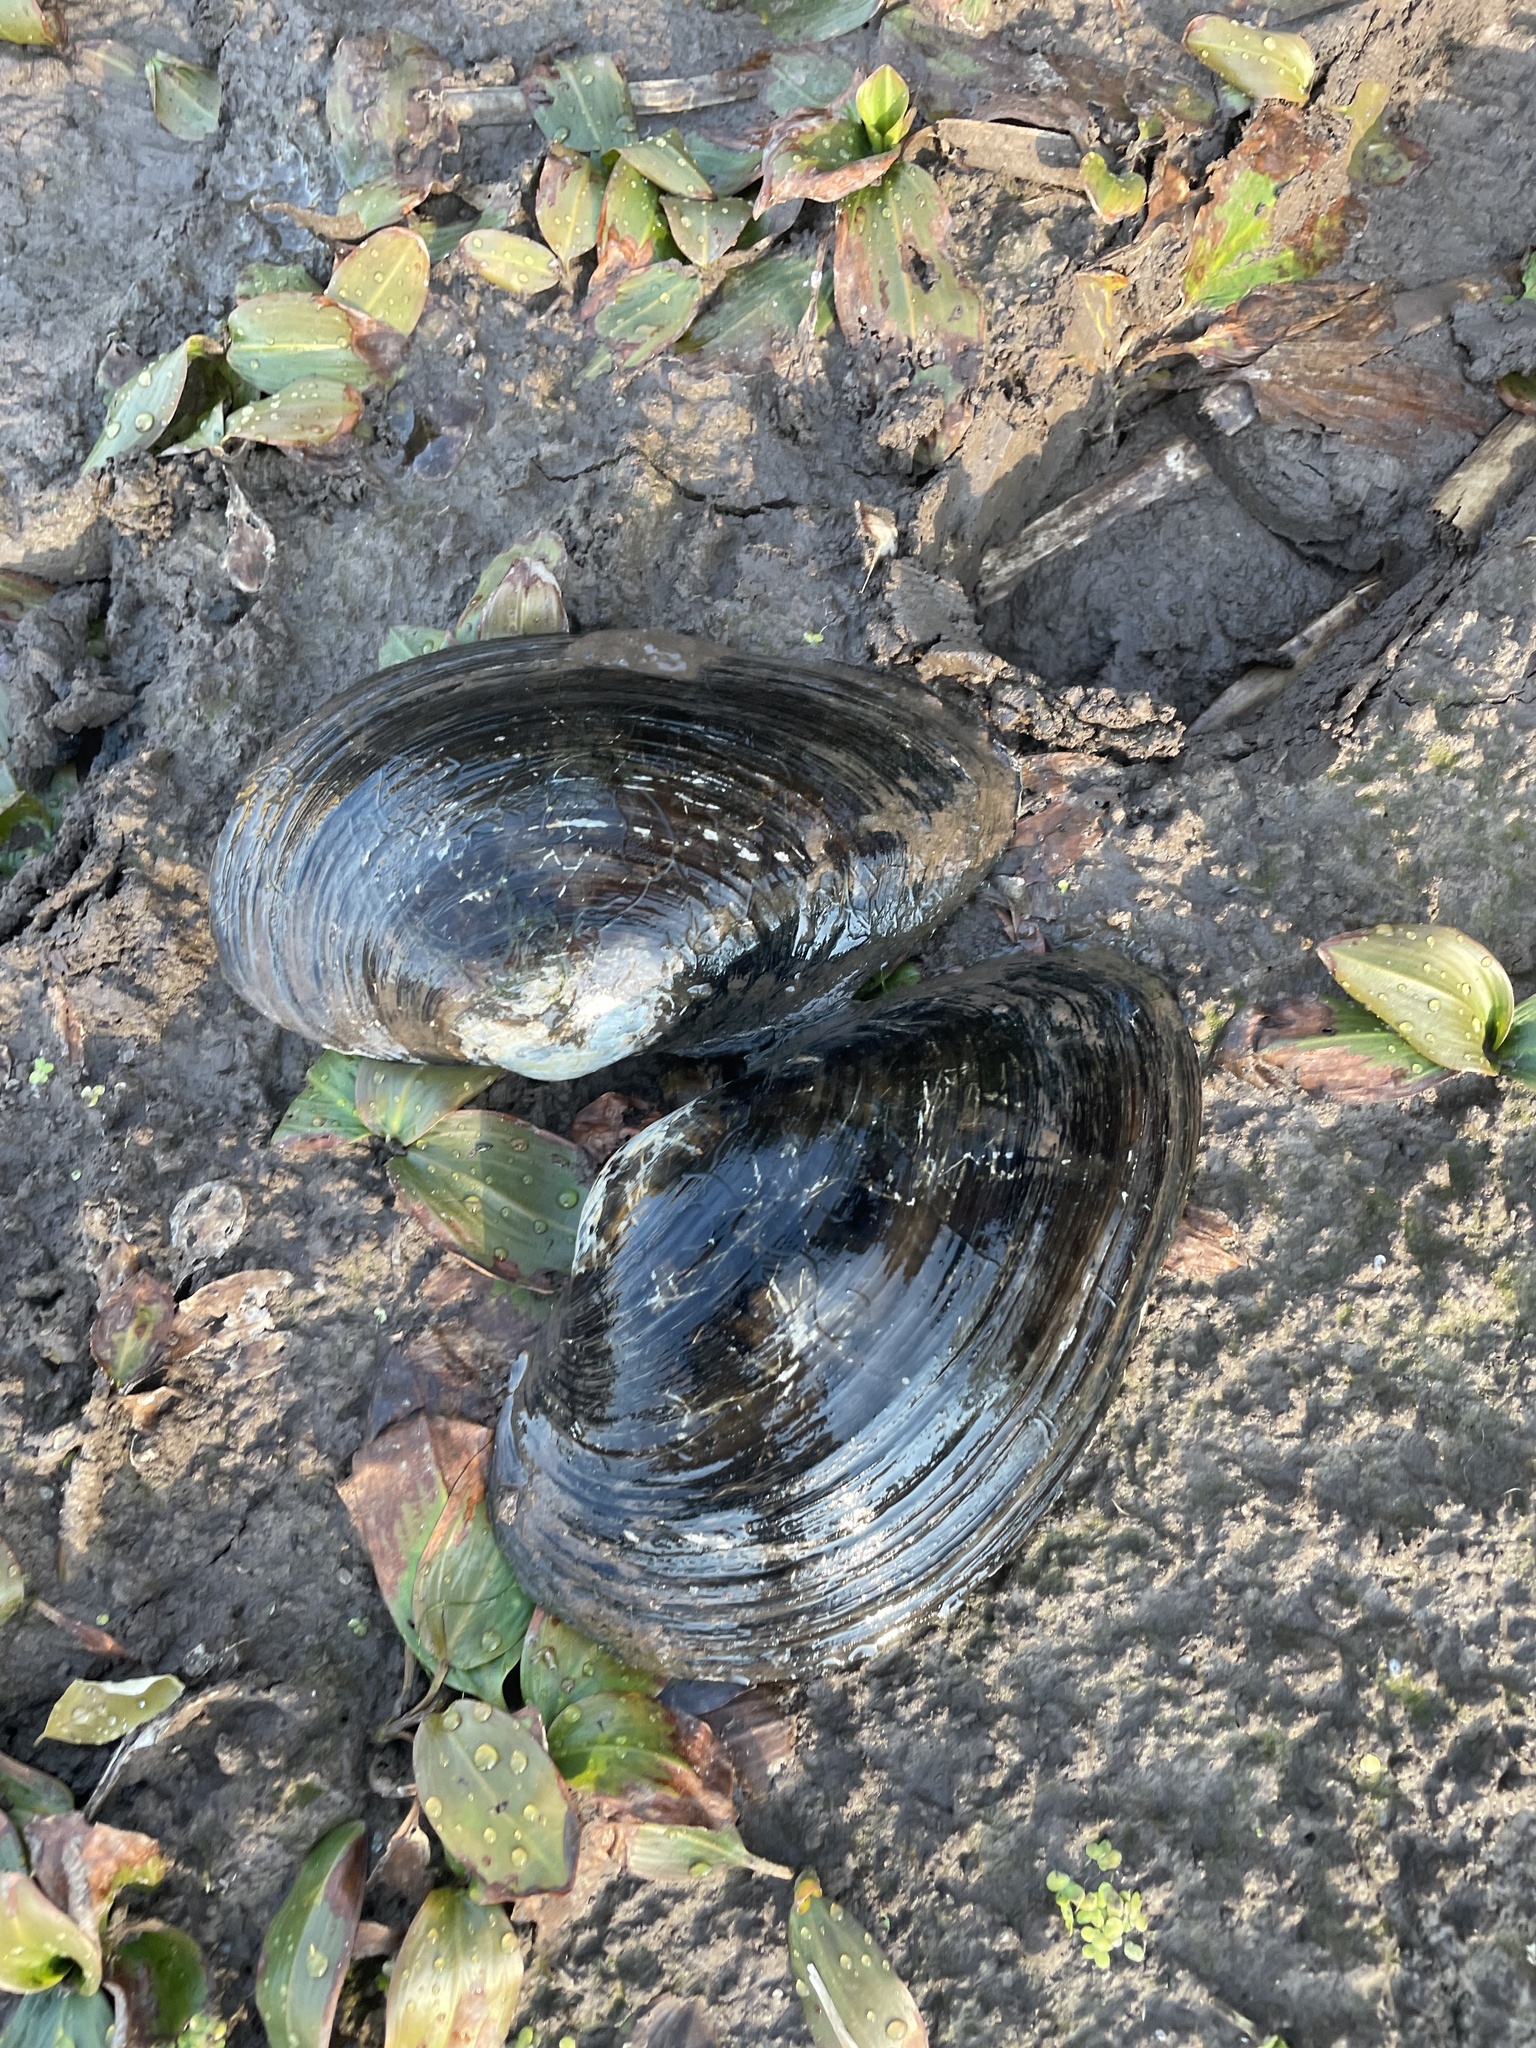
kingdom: Animalia
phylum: Mollusca
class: Bivalvia
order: Unionida
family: Unionidae
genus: Pyganodon
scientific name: Pyganodon grandis
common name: Giant floater
